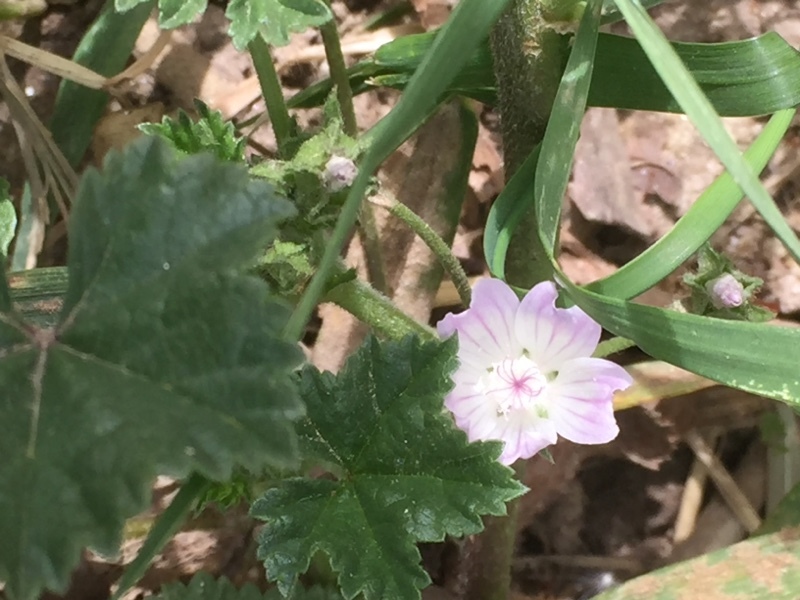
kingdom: Plantae
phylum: Tracheophyta
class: Magnoliopsida
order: Malvales
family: Malvaceae
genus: Malva
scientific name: Malva neglecta
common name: Common mallow
